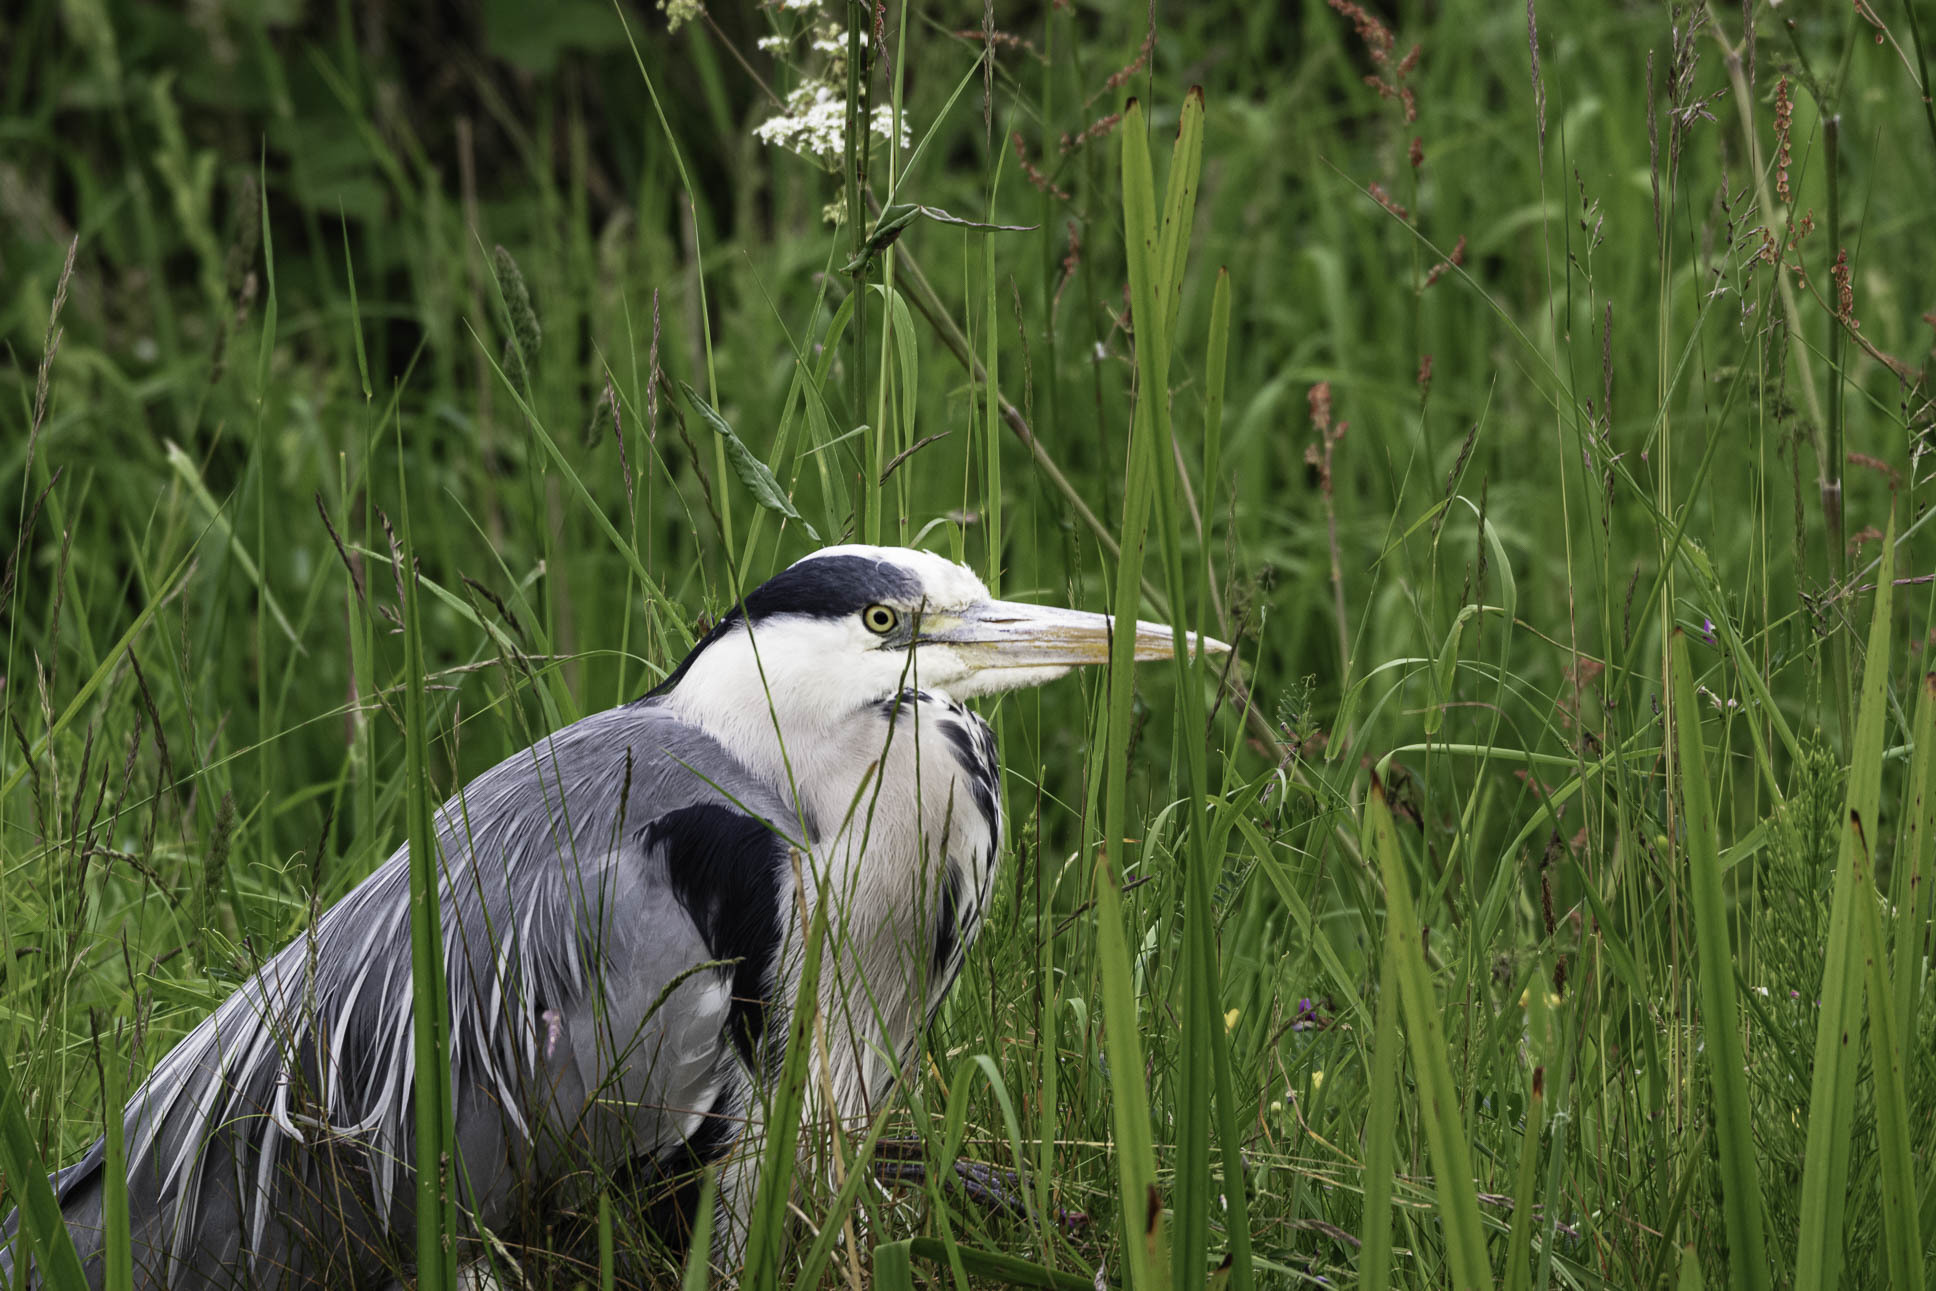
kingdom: Animalia
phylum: Chordata
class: Aves
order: Pelecaniformes
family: Ardeidae
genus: Ardea
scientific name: Ardea cinerea
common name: Grey heron
